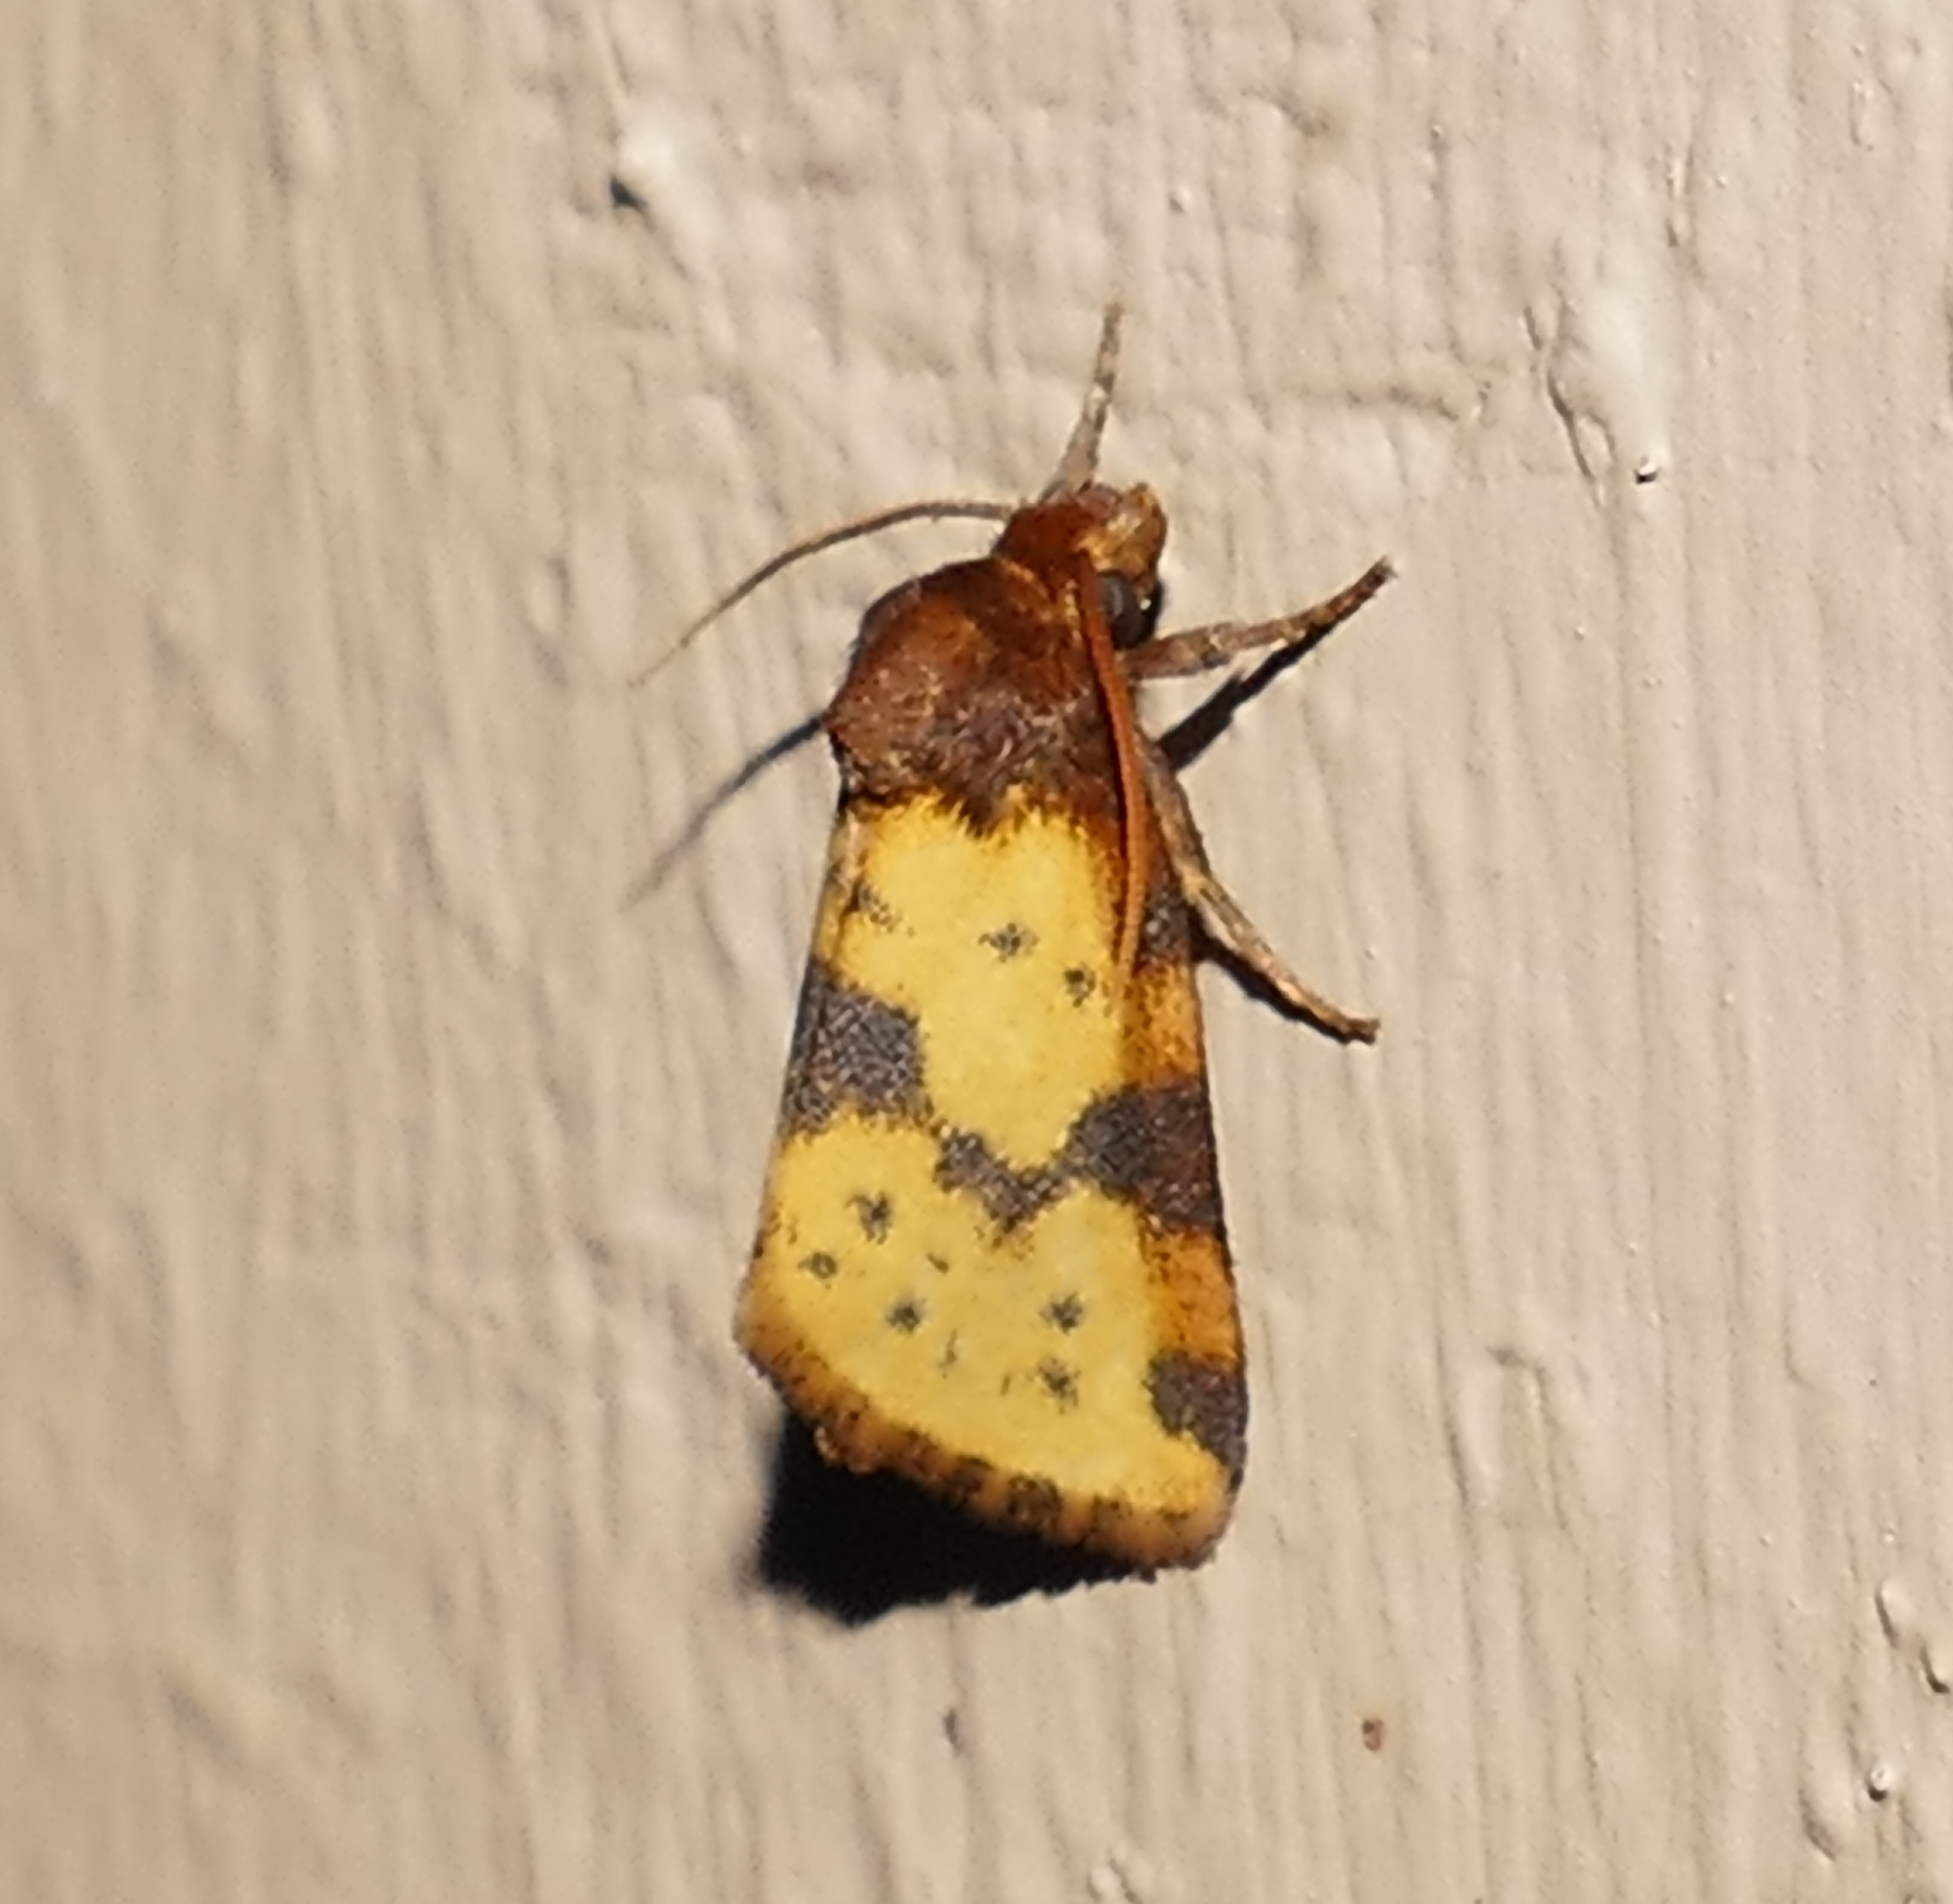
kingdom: Animalia
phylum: Arthropoda
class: Insecta
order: Lepidoptera
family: Noctuidae
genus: Azenia
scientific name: Azenia obtusa
